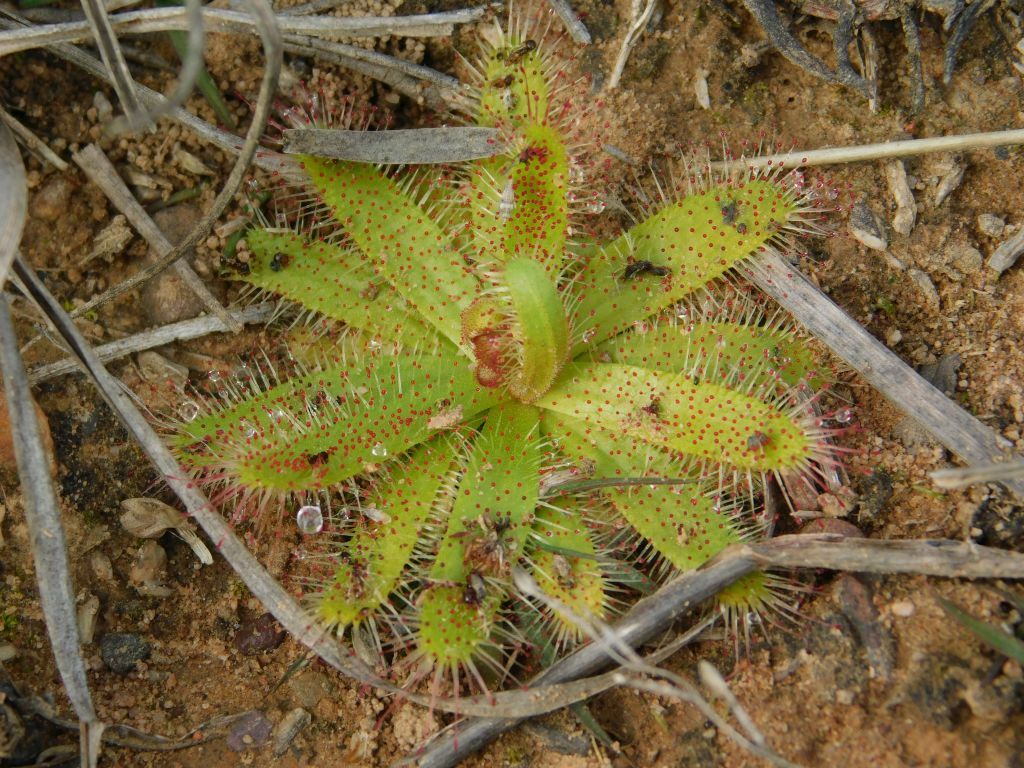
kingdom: Plantae
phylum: Tracheophyta
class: Magnoliopsida
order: Caryophyllales
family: Droseraceae
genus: Drosera
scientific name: Drosera cistiflora
